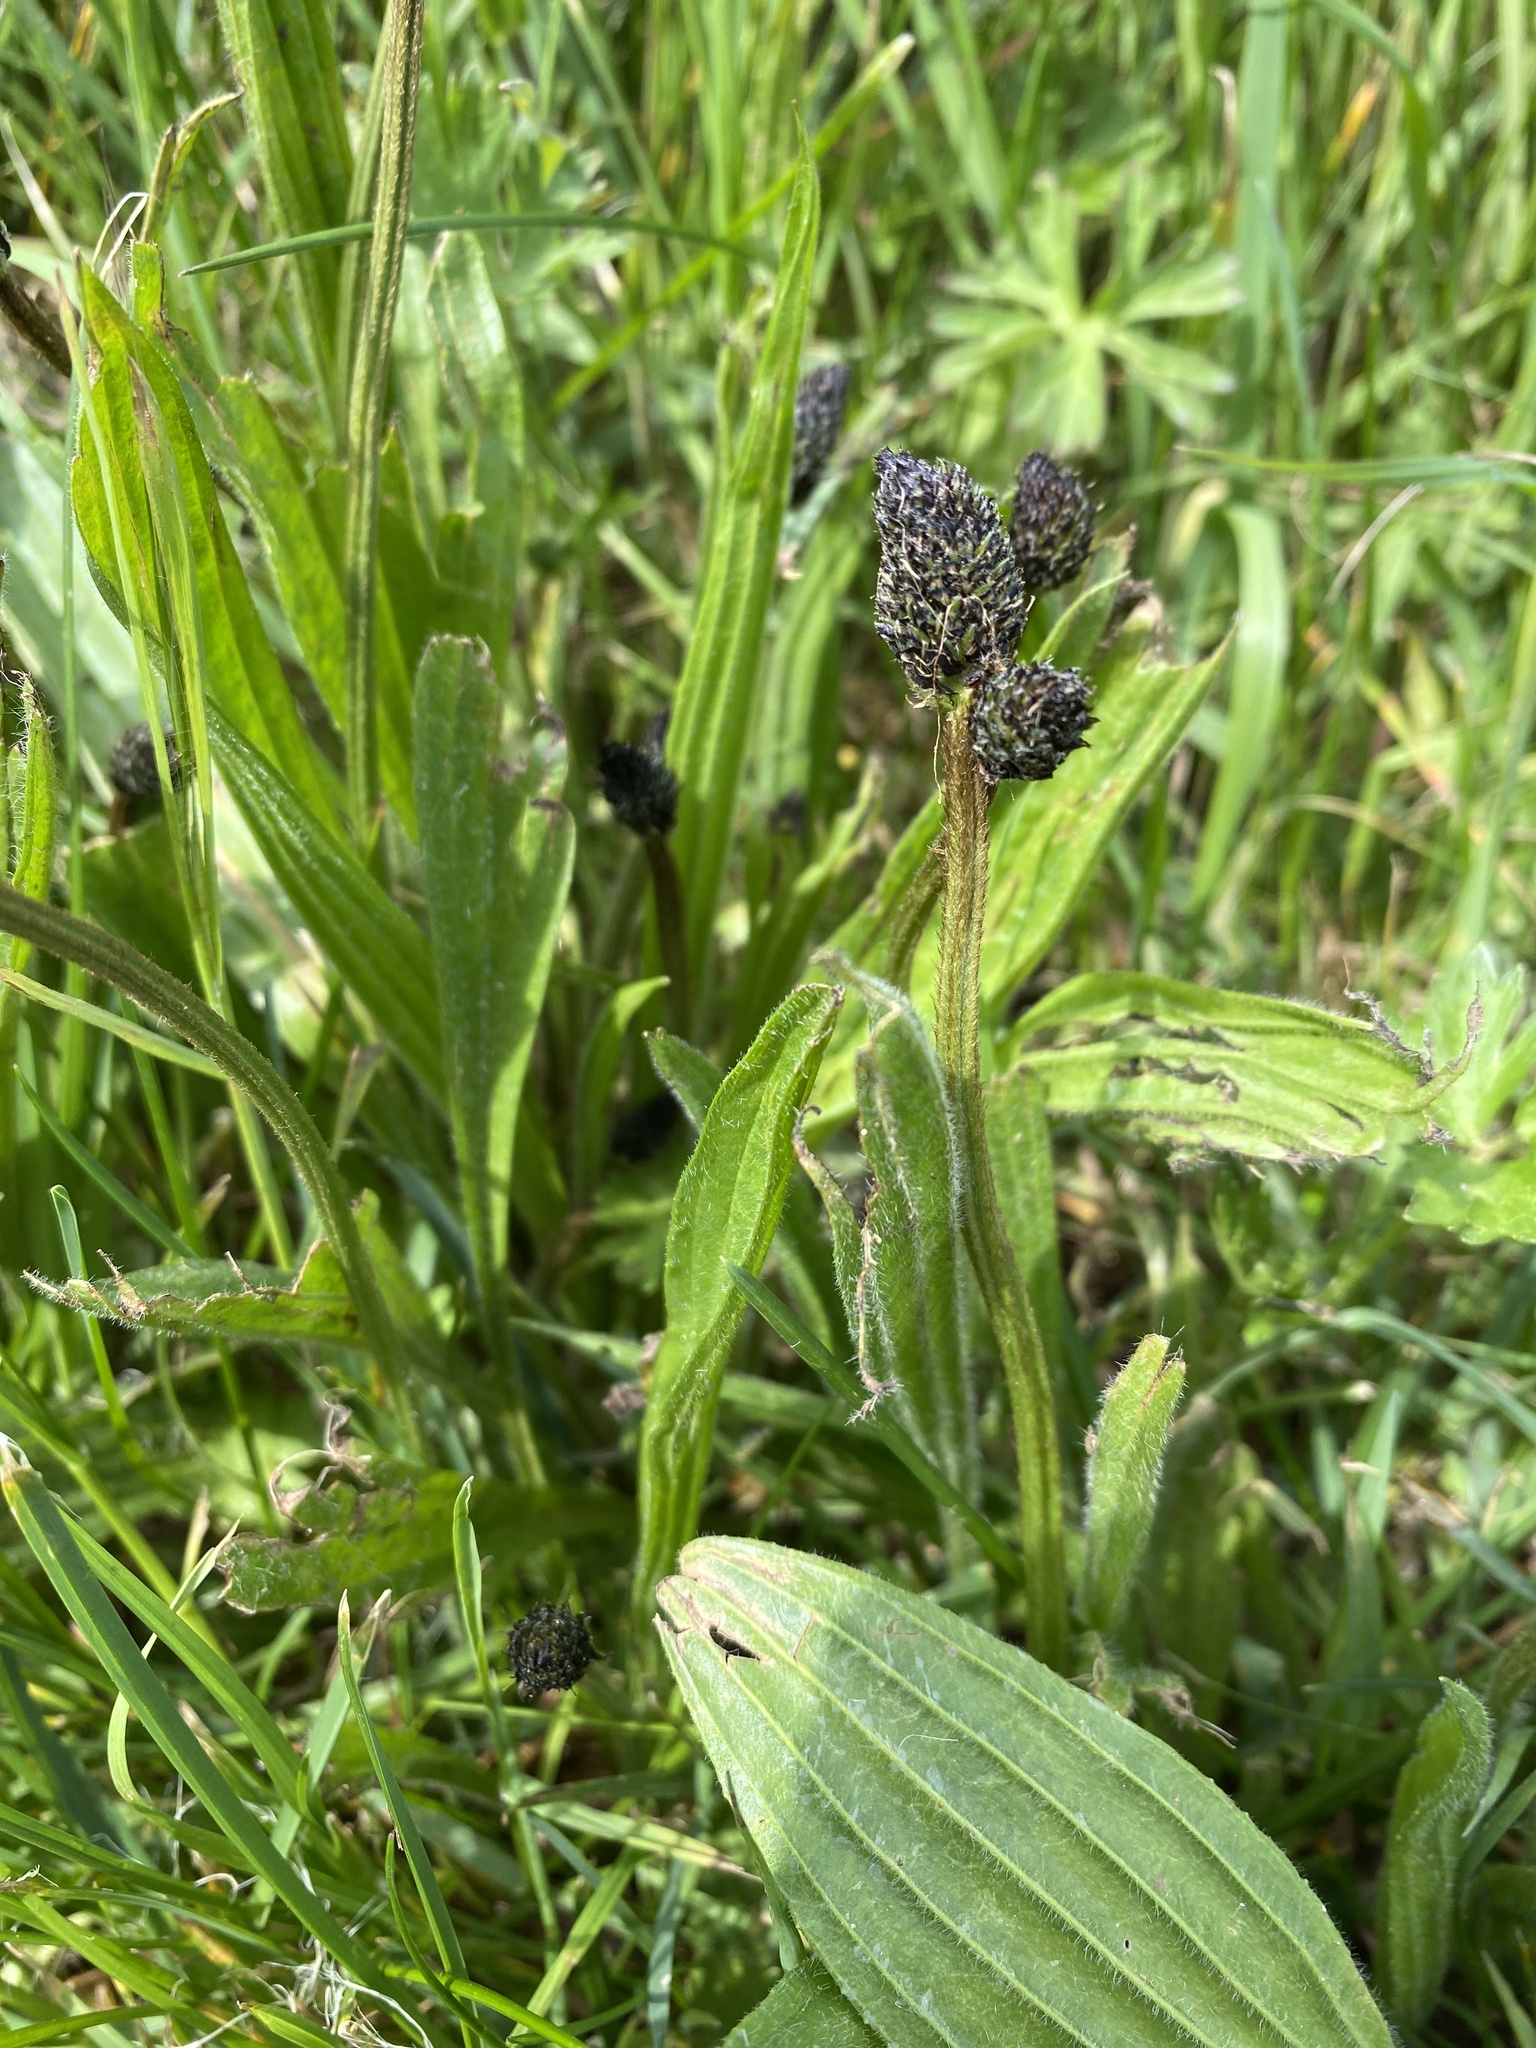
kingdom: Plantae
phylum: Tracheophyta
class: Magnoliopsida
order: Lamiales
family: Plantaginaceae
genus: Plantago
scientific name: Plantago lanceolata
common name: Ribwort plantain
